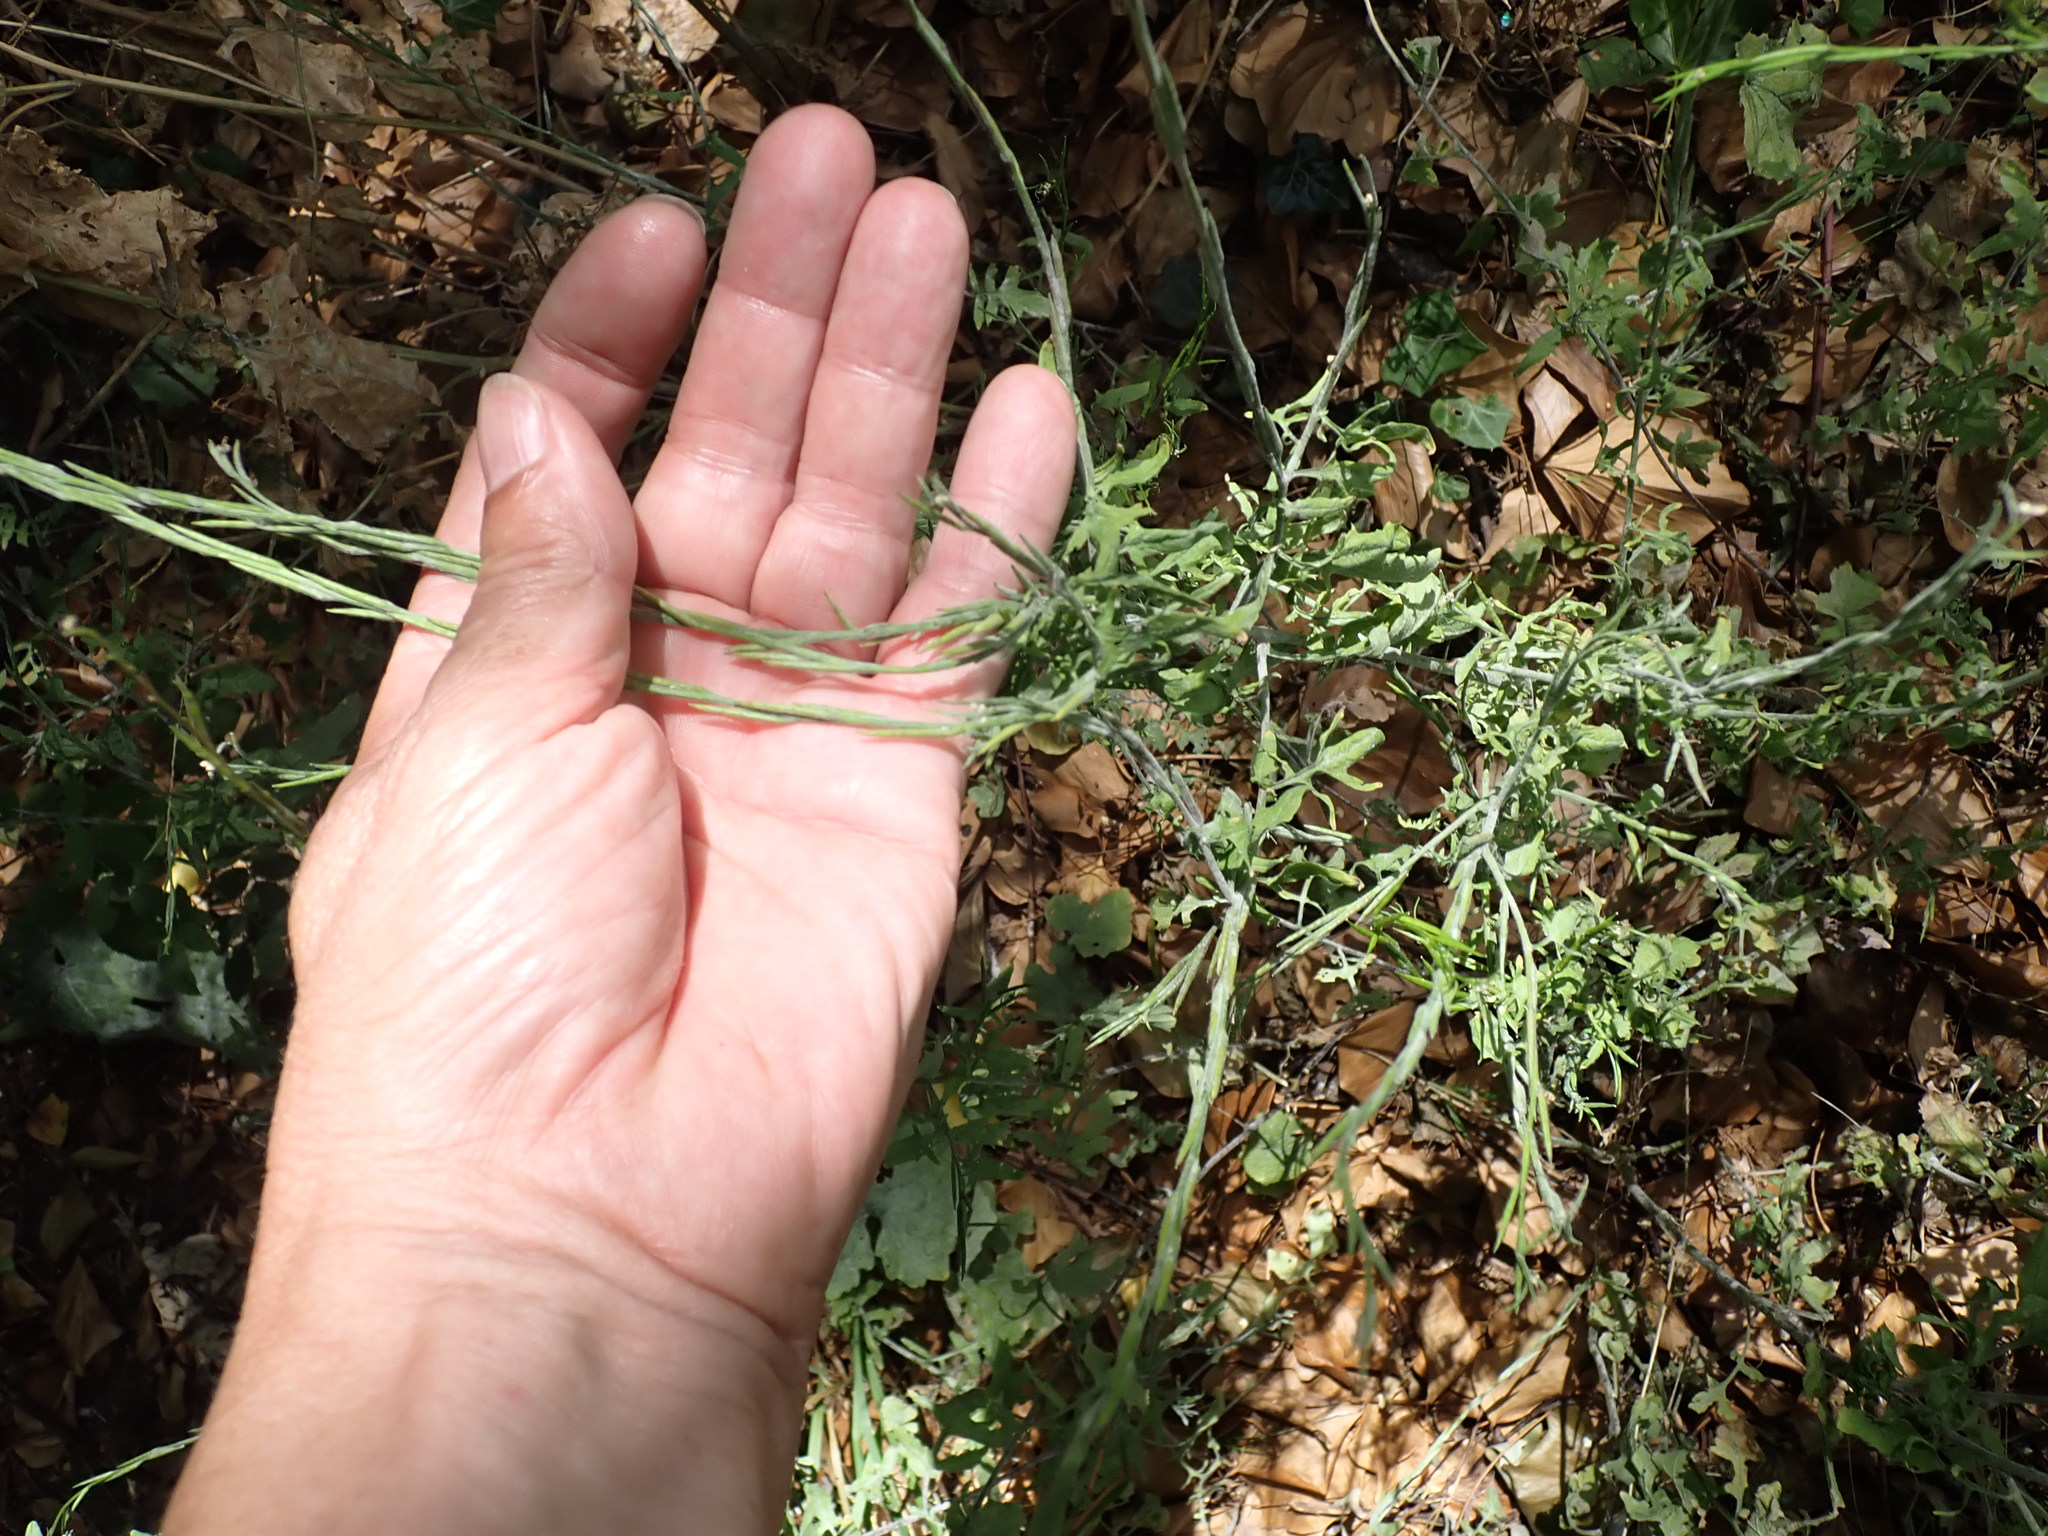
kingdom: Plantae
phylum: Tracheophyta
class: Magnoliopsida
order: Brassicales
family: Brassicaceae
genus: Sisymbrium
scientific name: Sisymbrium officinale
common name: Hedge mustard
